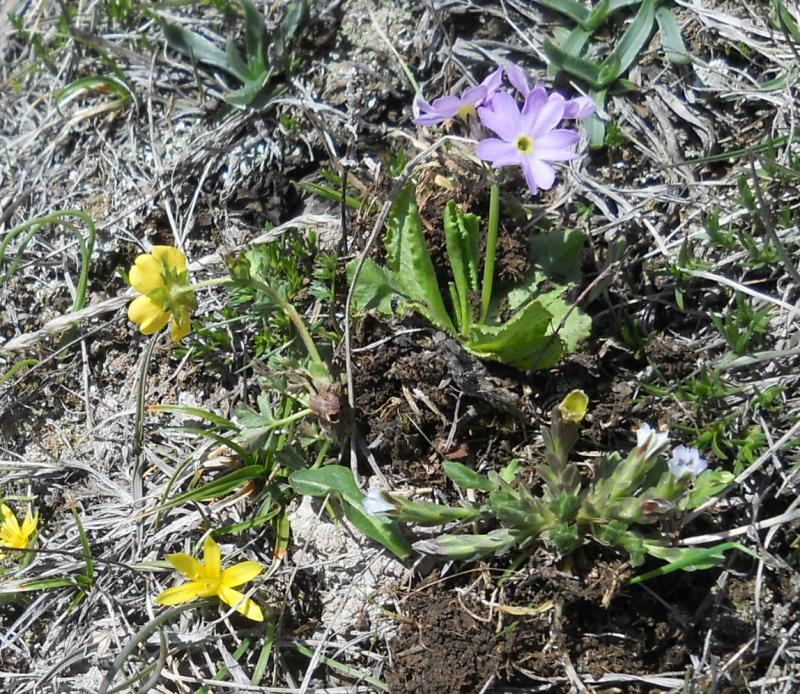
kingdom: Plantae
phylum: Tracheophyta
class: Magnoliopsida
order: Gentianales
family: Gentianaceae
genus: Gentiana
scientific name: Gentiana aquatica
